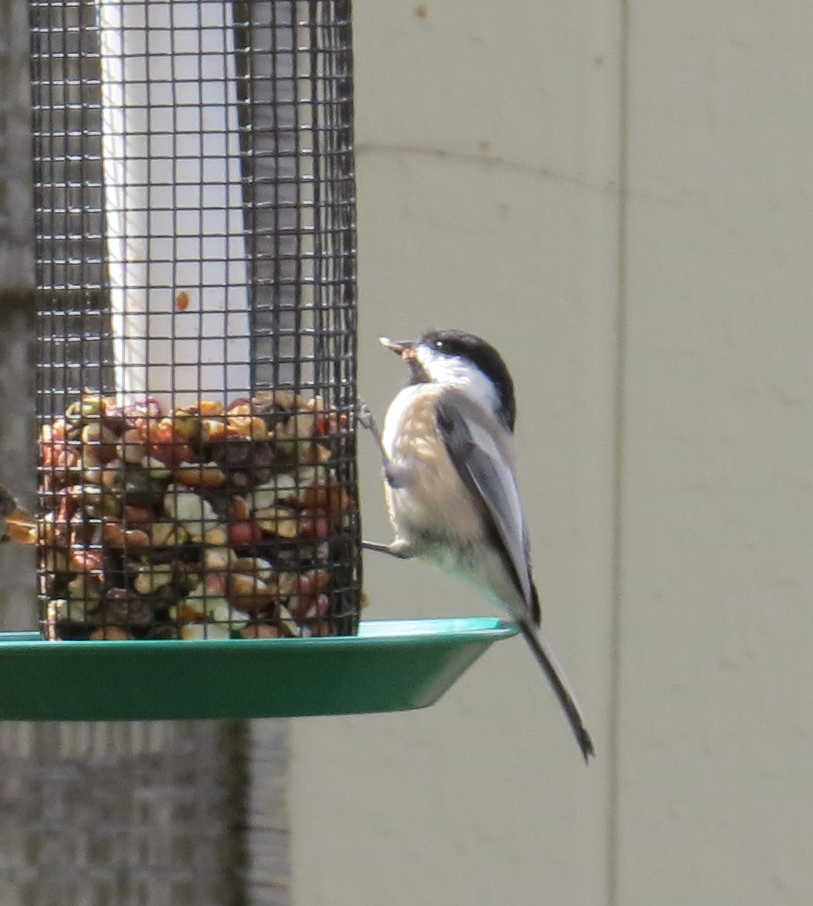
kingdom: Animalia
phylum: Chordata
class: Aves
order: Passeriformes
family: Paridae
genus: Poecile
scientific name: Poecile atricapillus
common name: Black-capped chickadee
